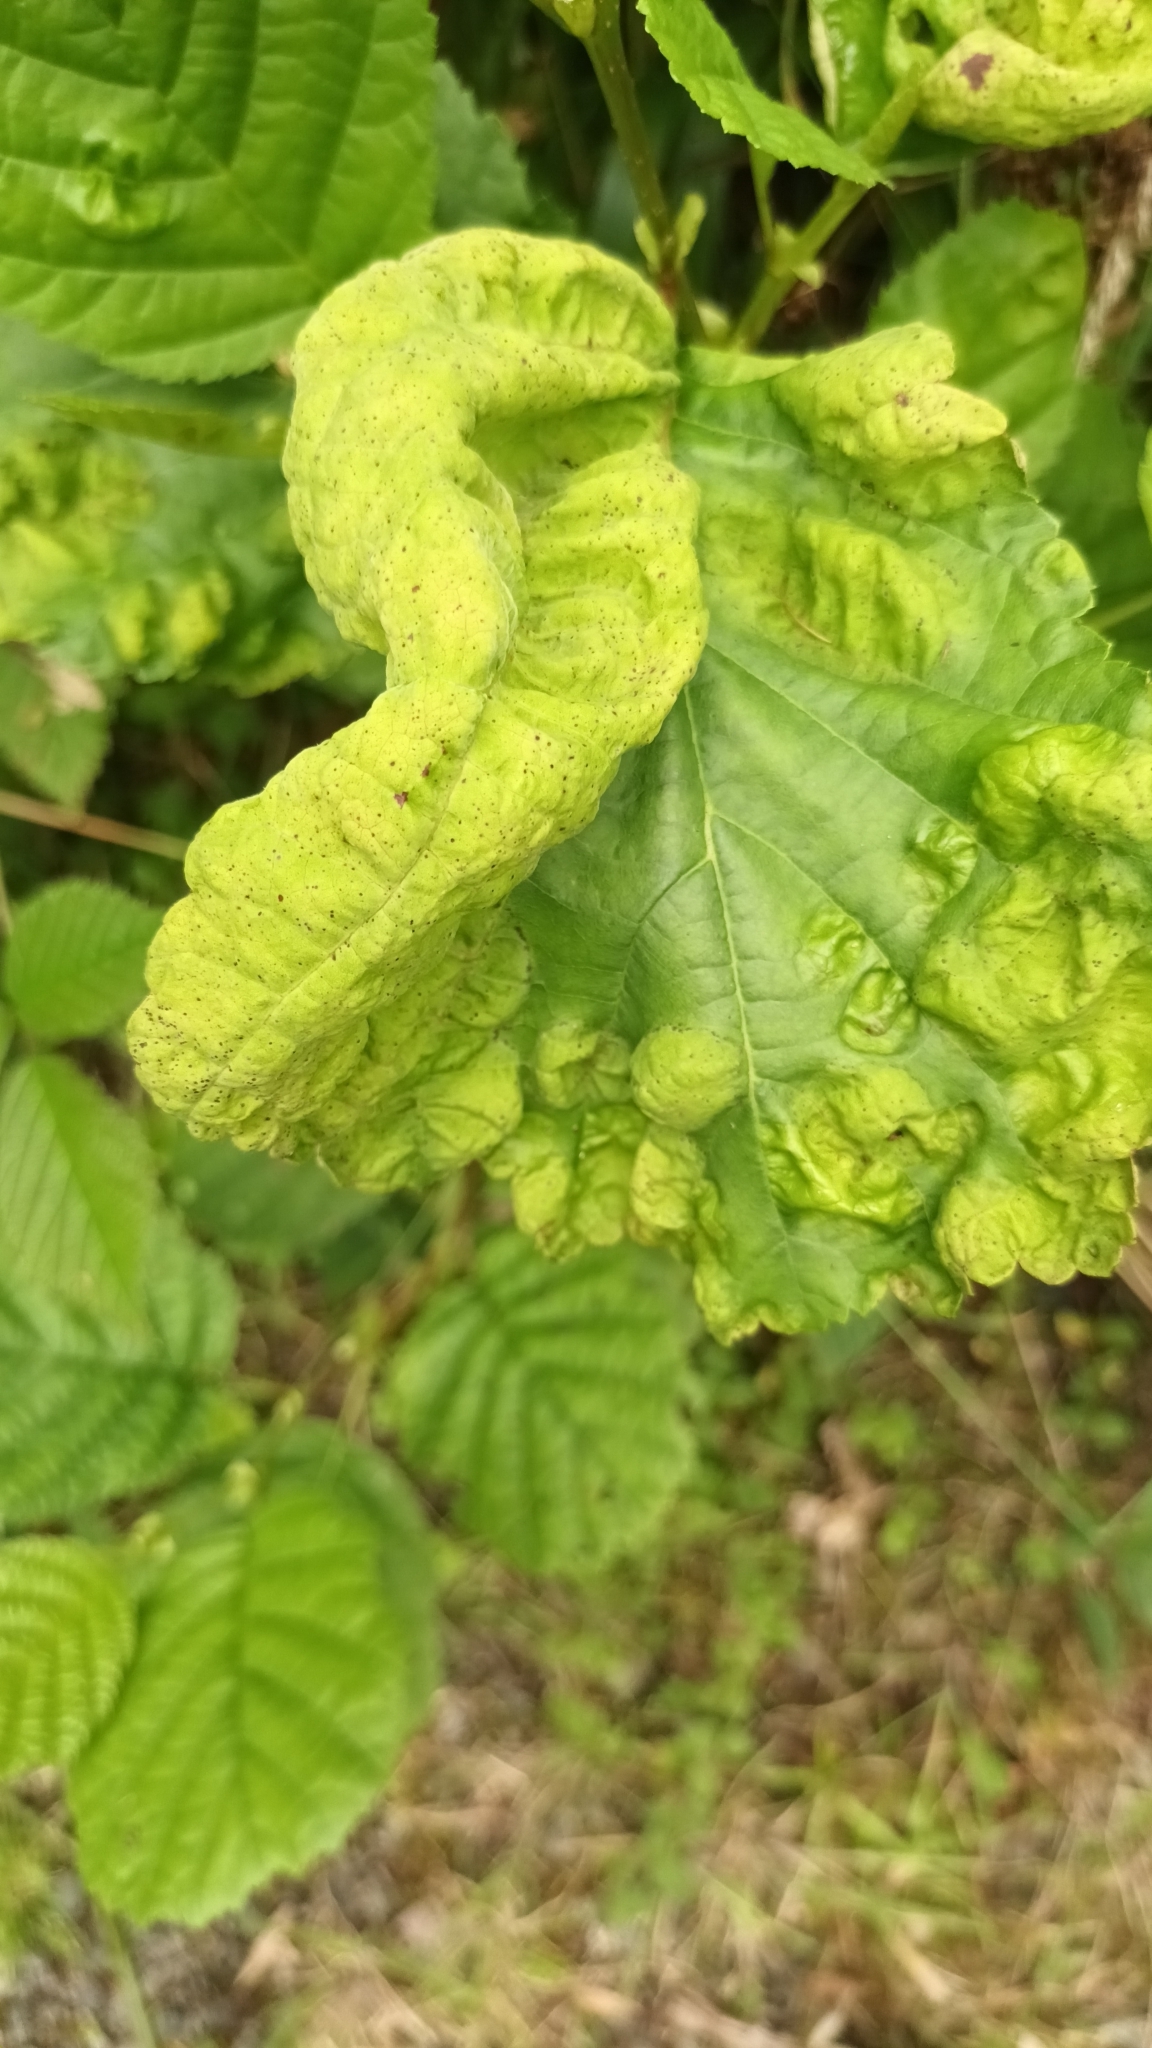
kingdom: Fungi
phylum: Ascomycota
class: Taphrinomycetes
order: Taphrinales
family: Taphrinaceae
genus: Taphrina
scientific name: Taphrina tosquinetii
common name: Alder wrinkle
